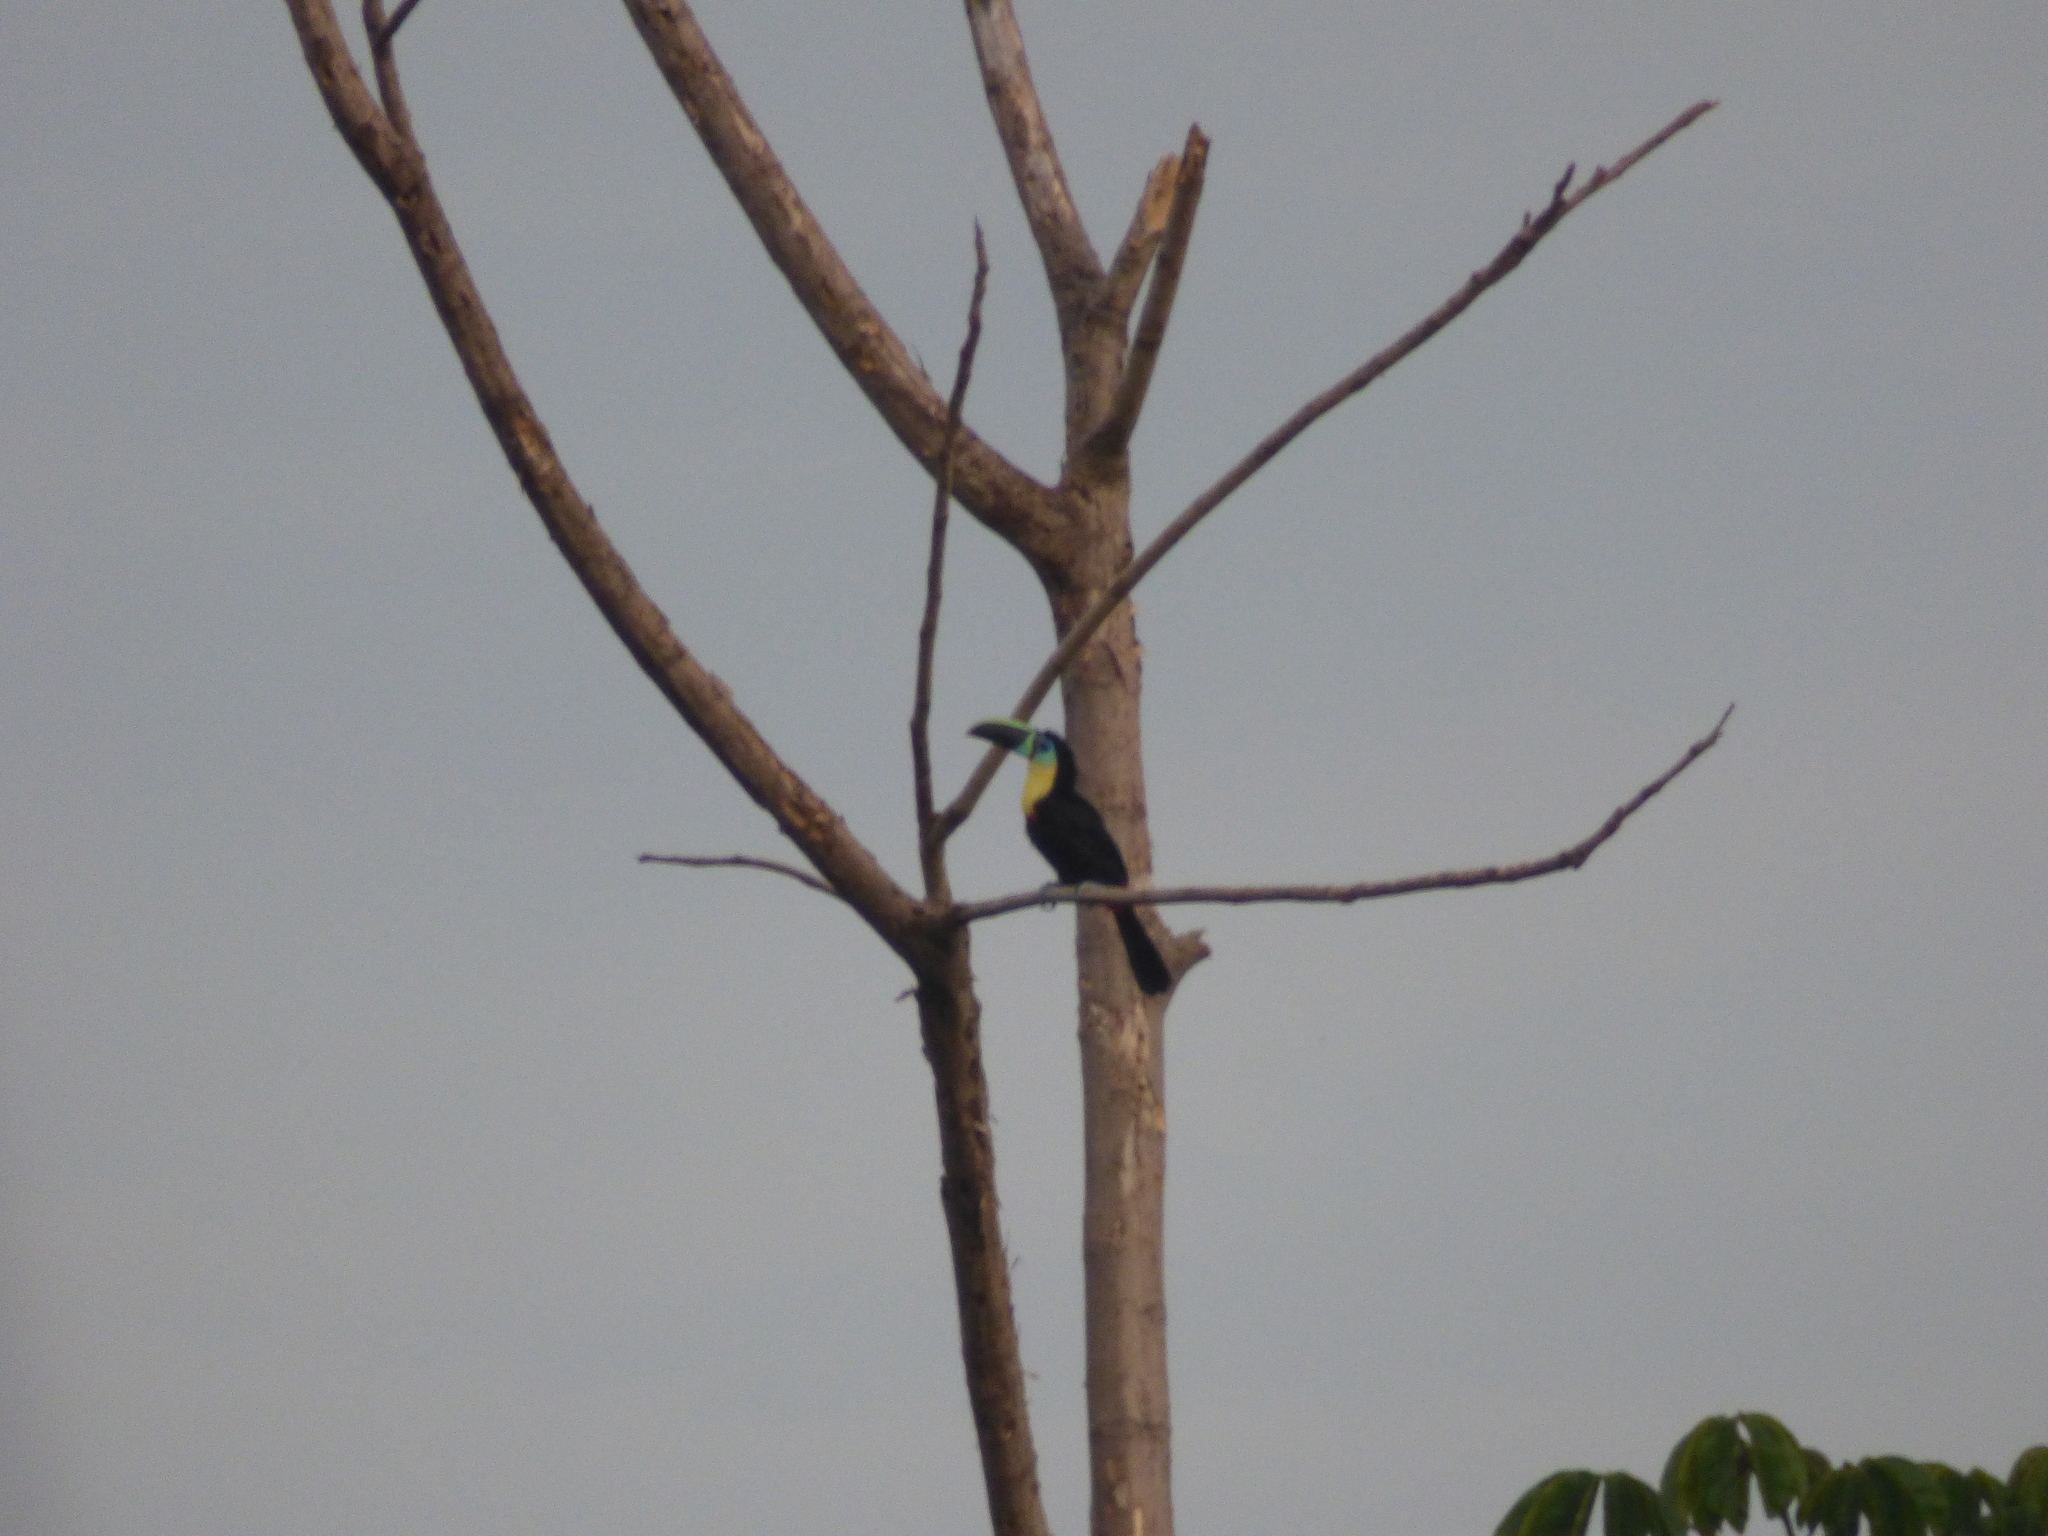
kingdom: Animalia
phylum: Chordata
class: Aves
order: Piciformes
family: Ramphastidae
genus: Ramphastos
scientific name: Ramphastos vitellinus
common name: Channel-billed toucan
